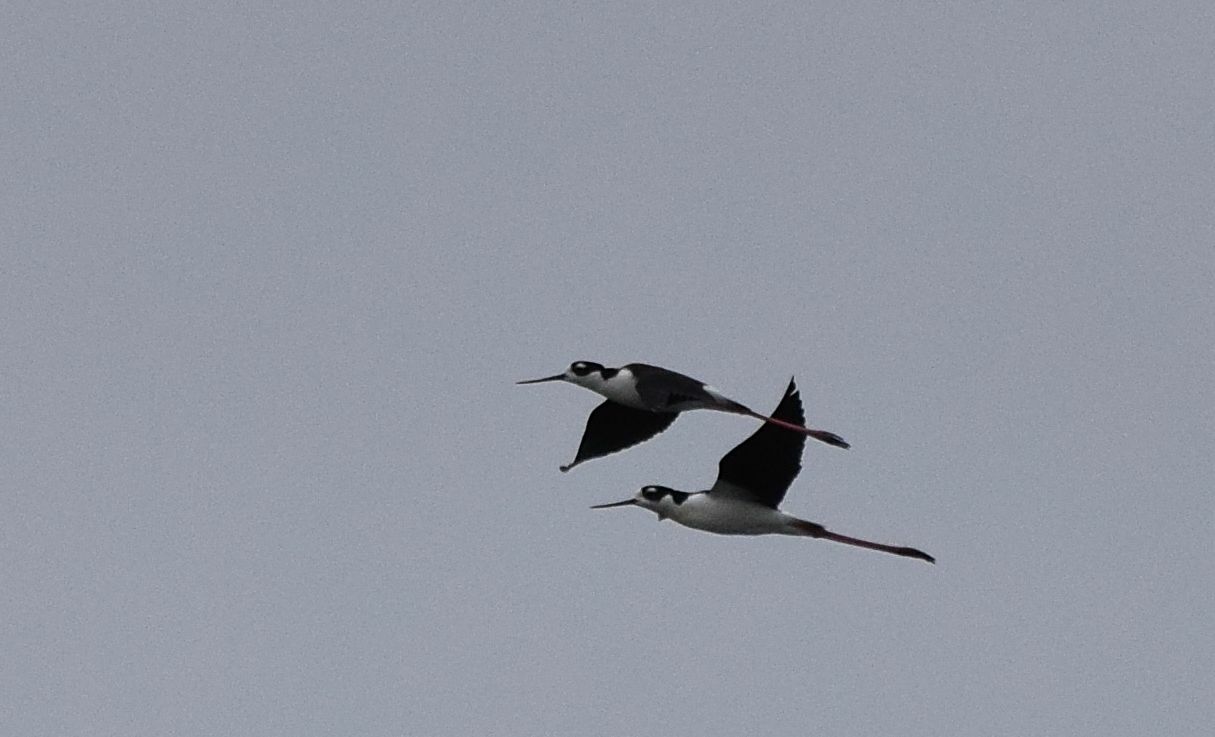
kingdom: Animalia
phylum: Chordata
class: Aves
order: Charadriiformes
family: Recurvirostridae
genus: Himantopus
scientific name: Himantopus mexicanus
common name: Black-necked stilt
